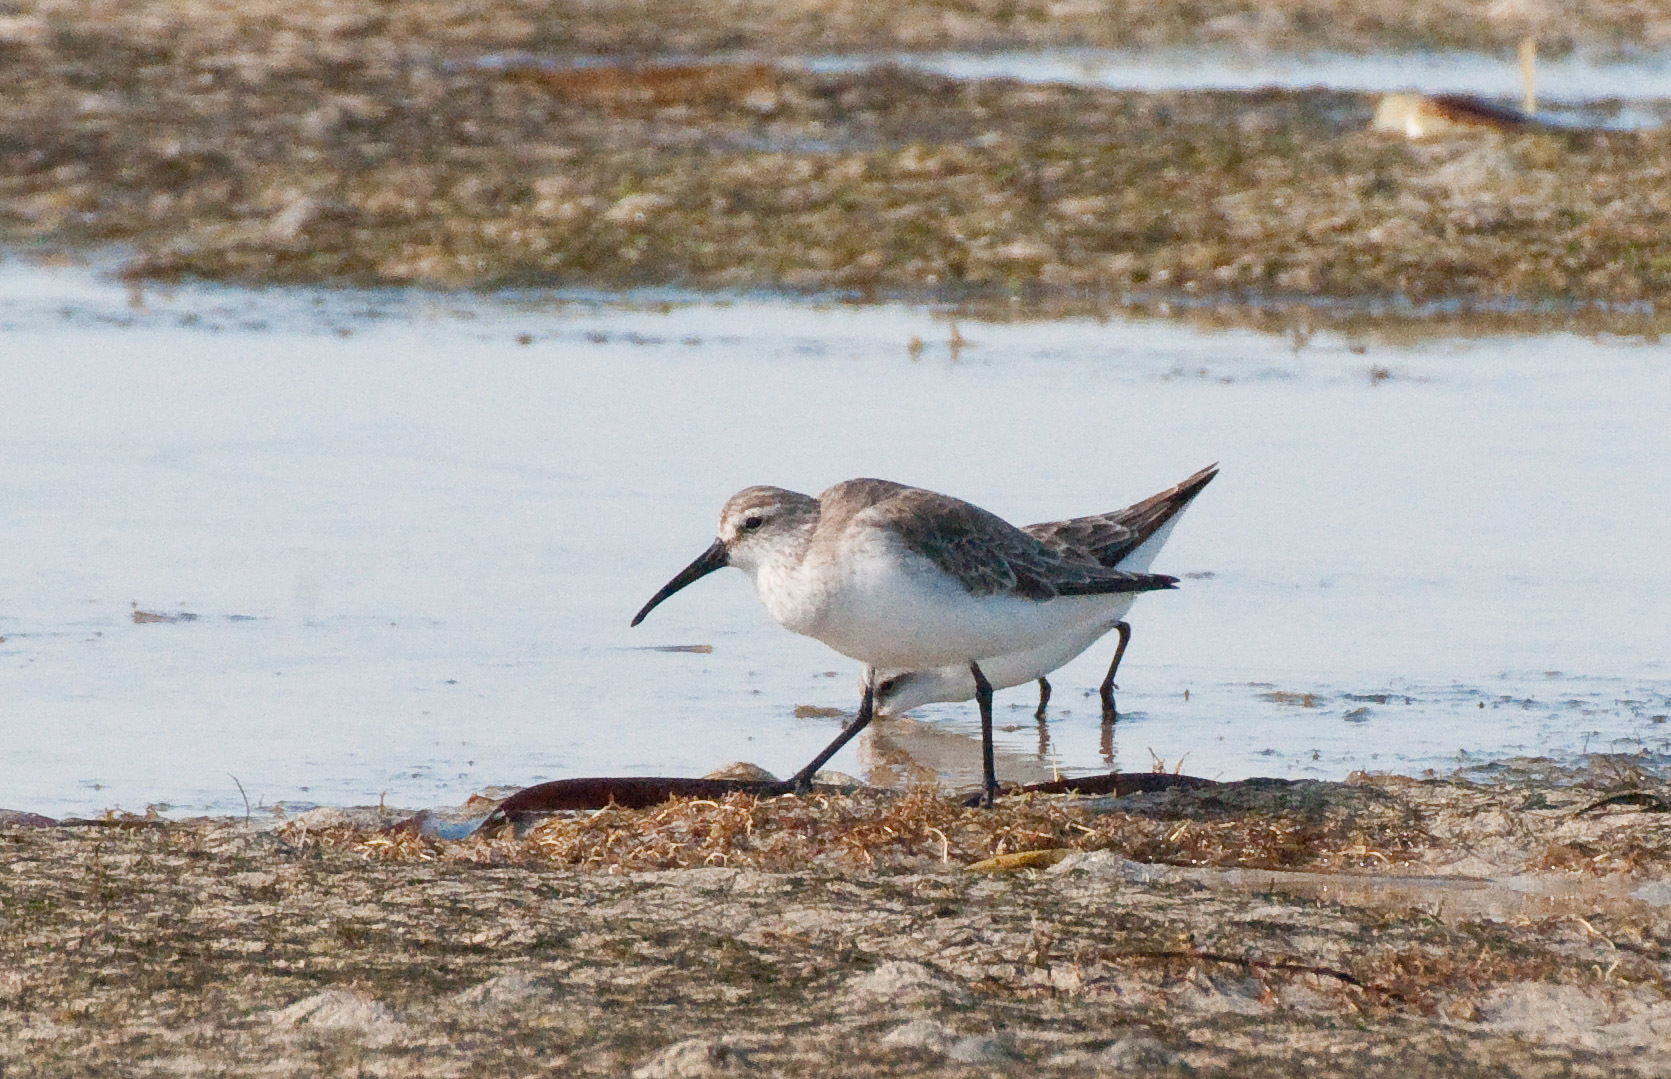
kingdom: Animalia
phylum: Chordata
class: Aves
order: Charadriiformes
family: Scolopacidae
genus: Calidris
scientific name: Calidris ferruginea
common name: Curlew sandpiper
